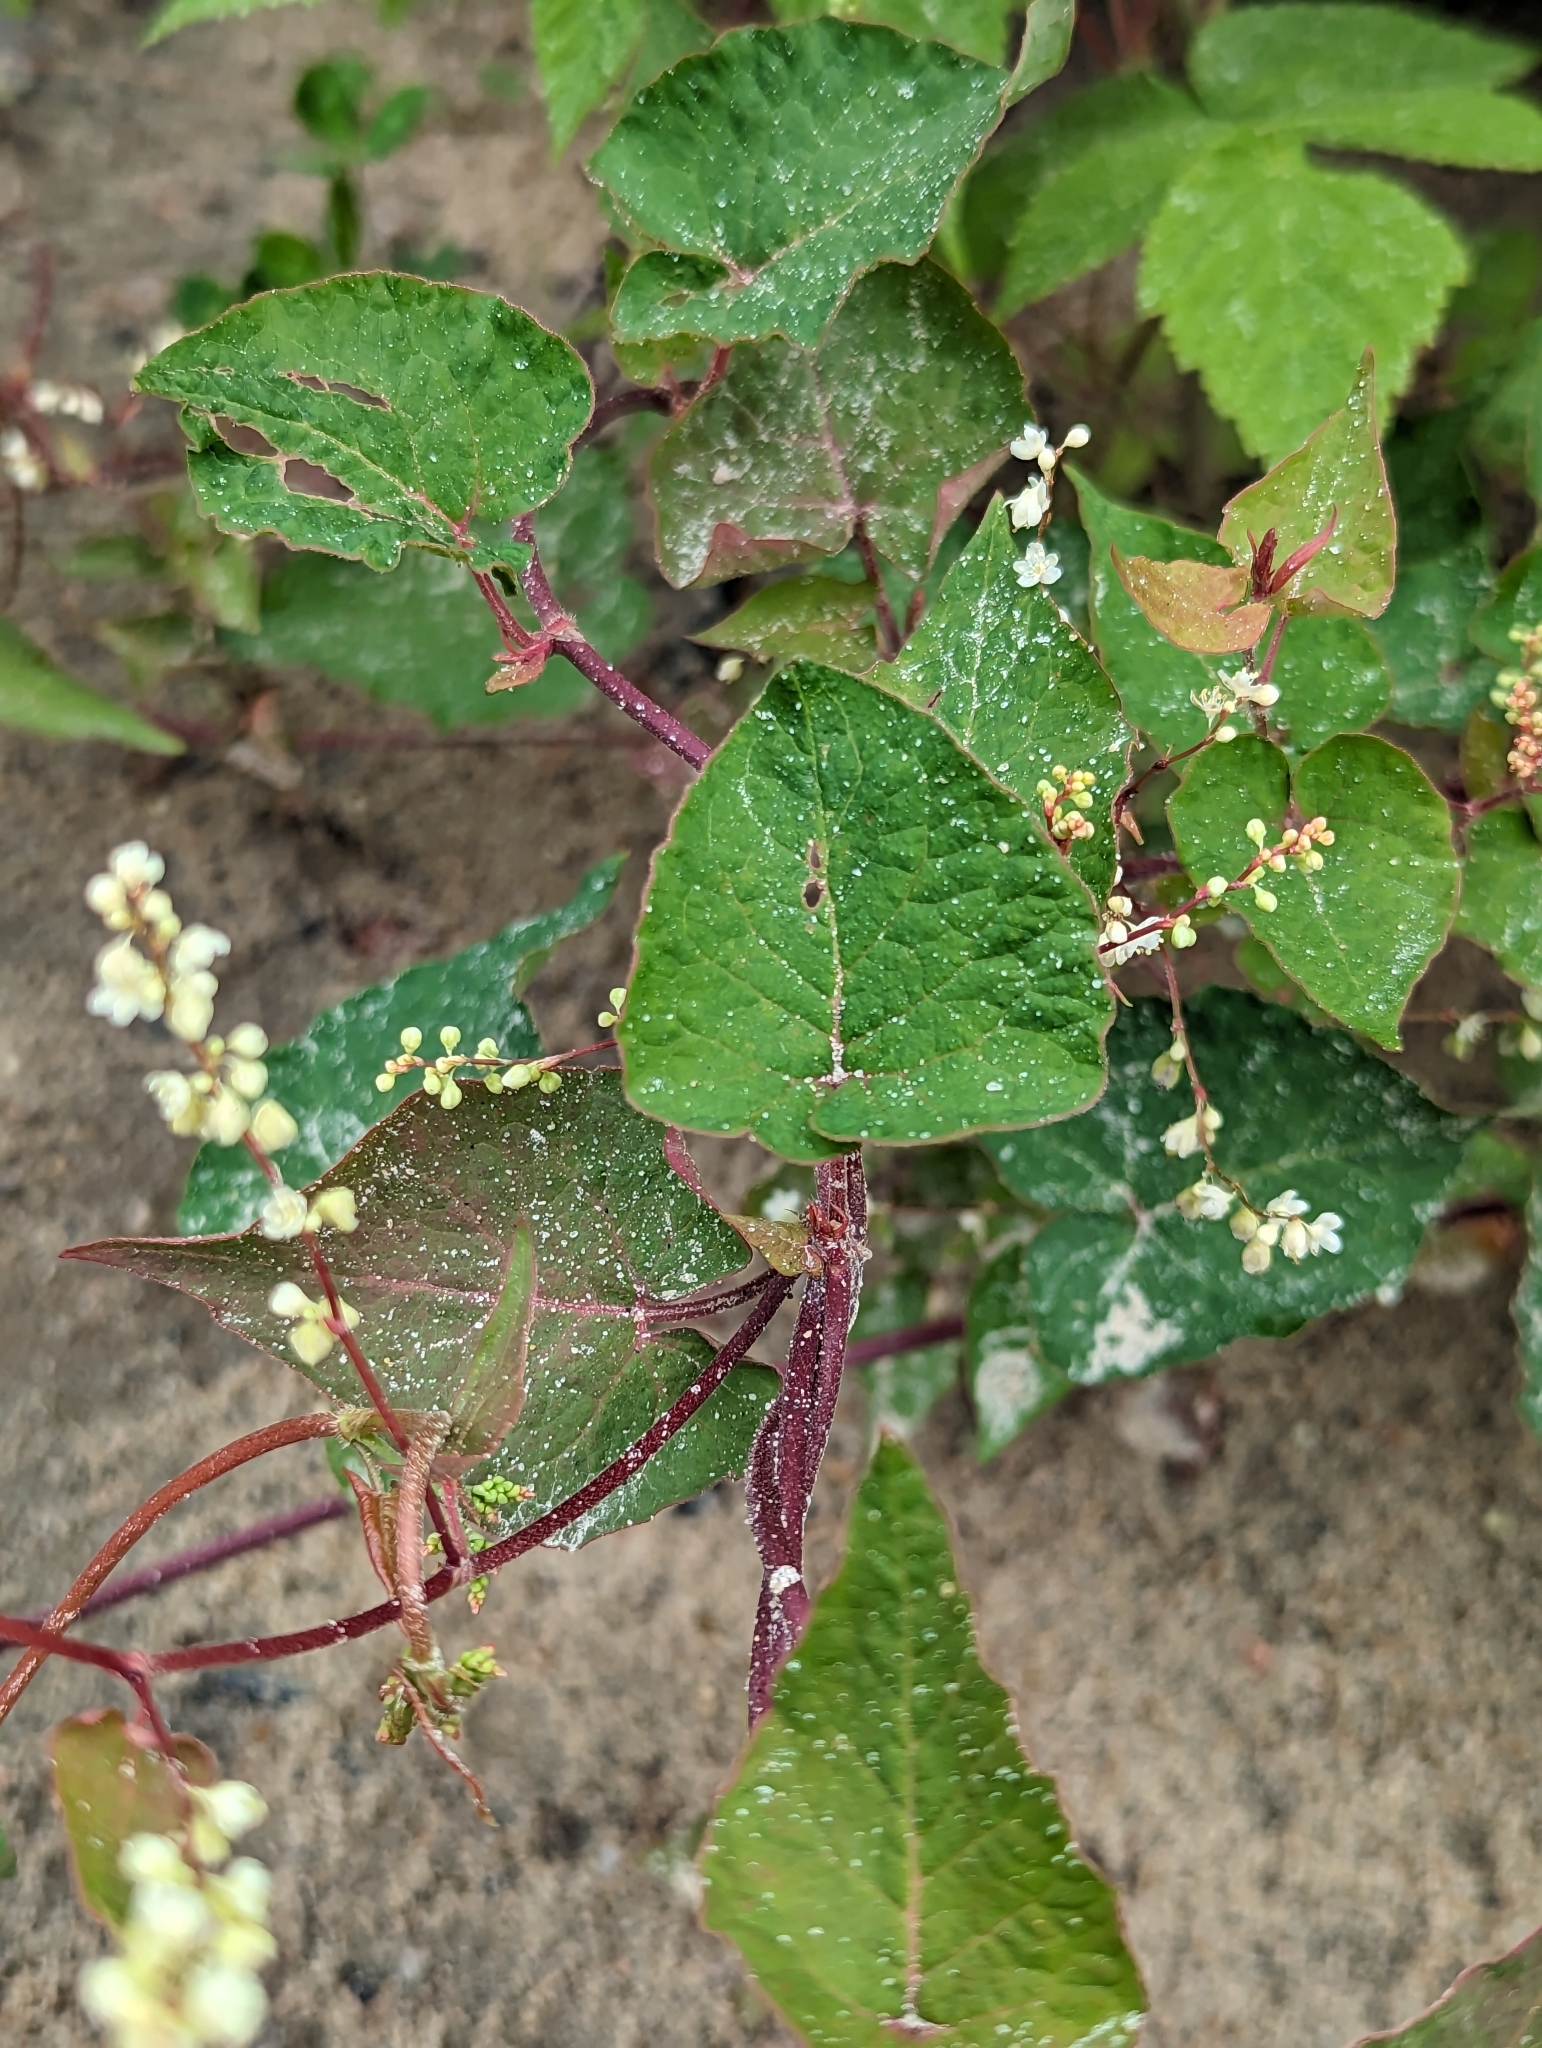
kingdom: Plantae
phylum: Tracheophyta
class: Magnoliopsida
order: Caryophyllales
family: Polygonaceae
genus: Parogonum
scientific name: Parogonum ciliinode
